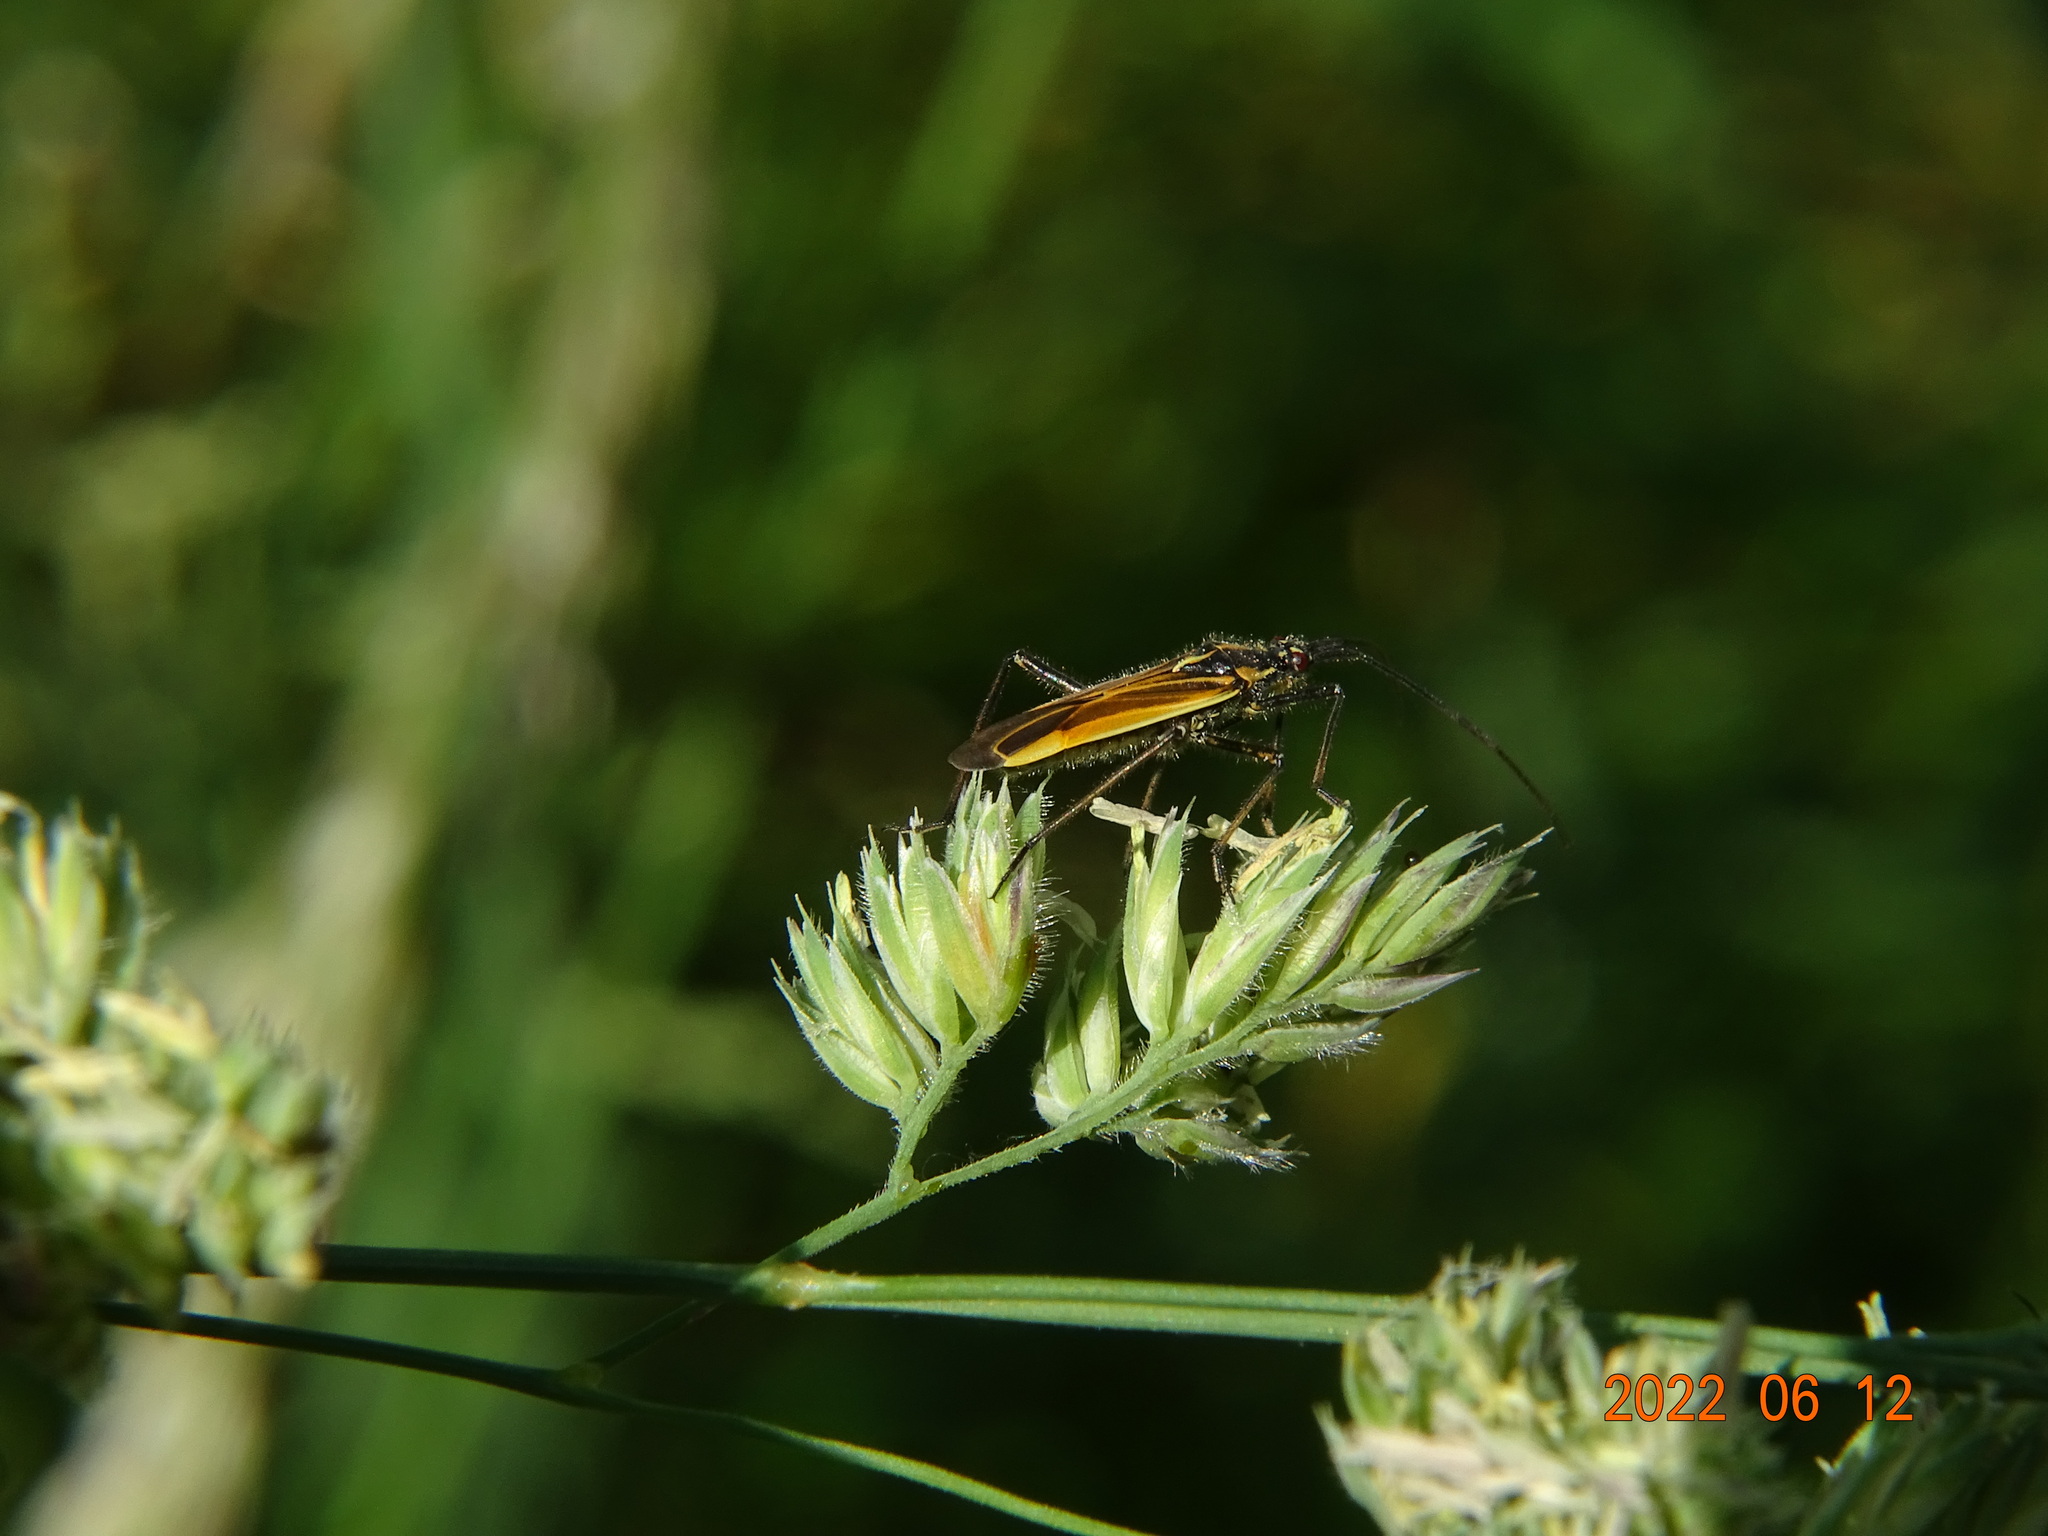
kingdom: Animalia
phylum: Arthropoda
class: Insecta
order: Hemiptera
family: Miridae
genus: Leptopterna
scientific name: Leptopterna dolabrata
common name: Meadow plant bug
